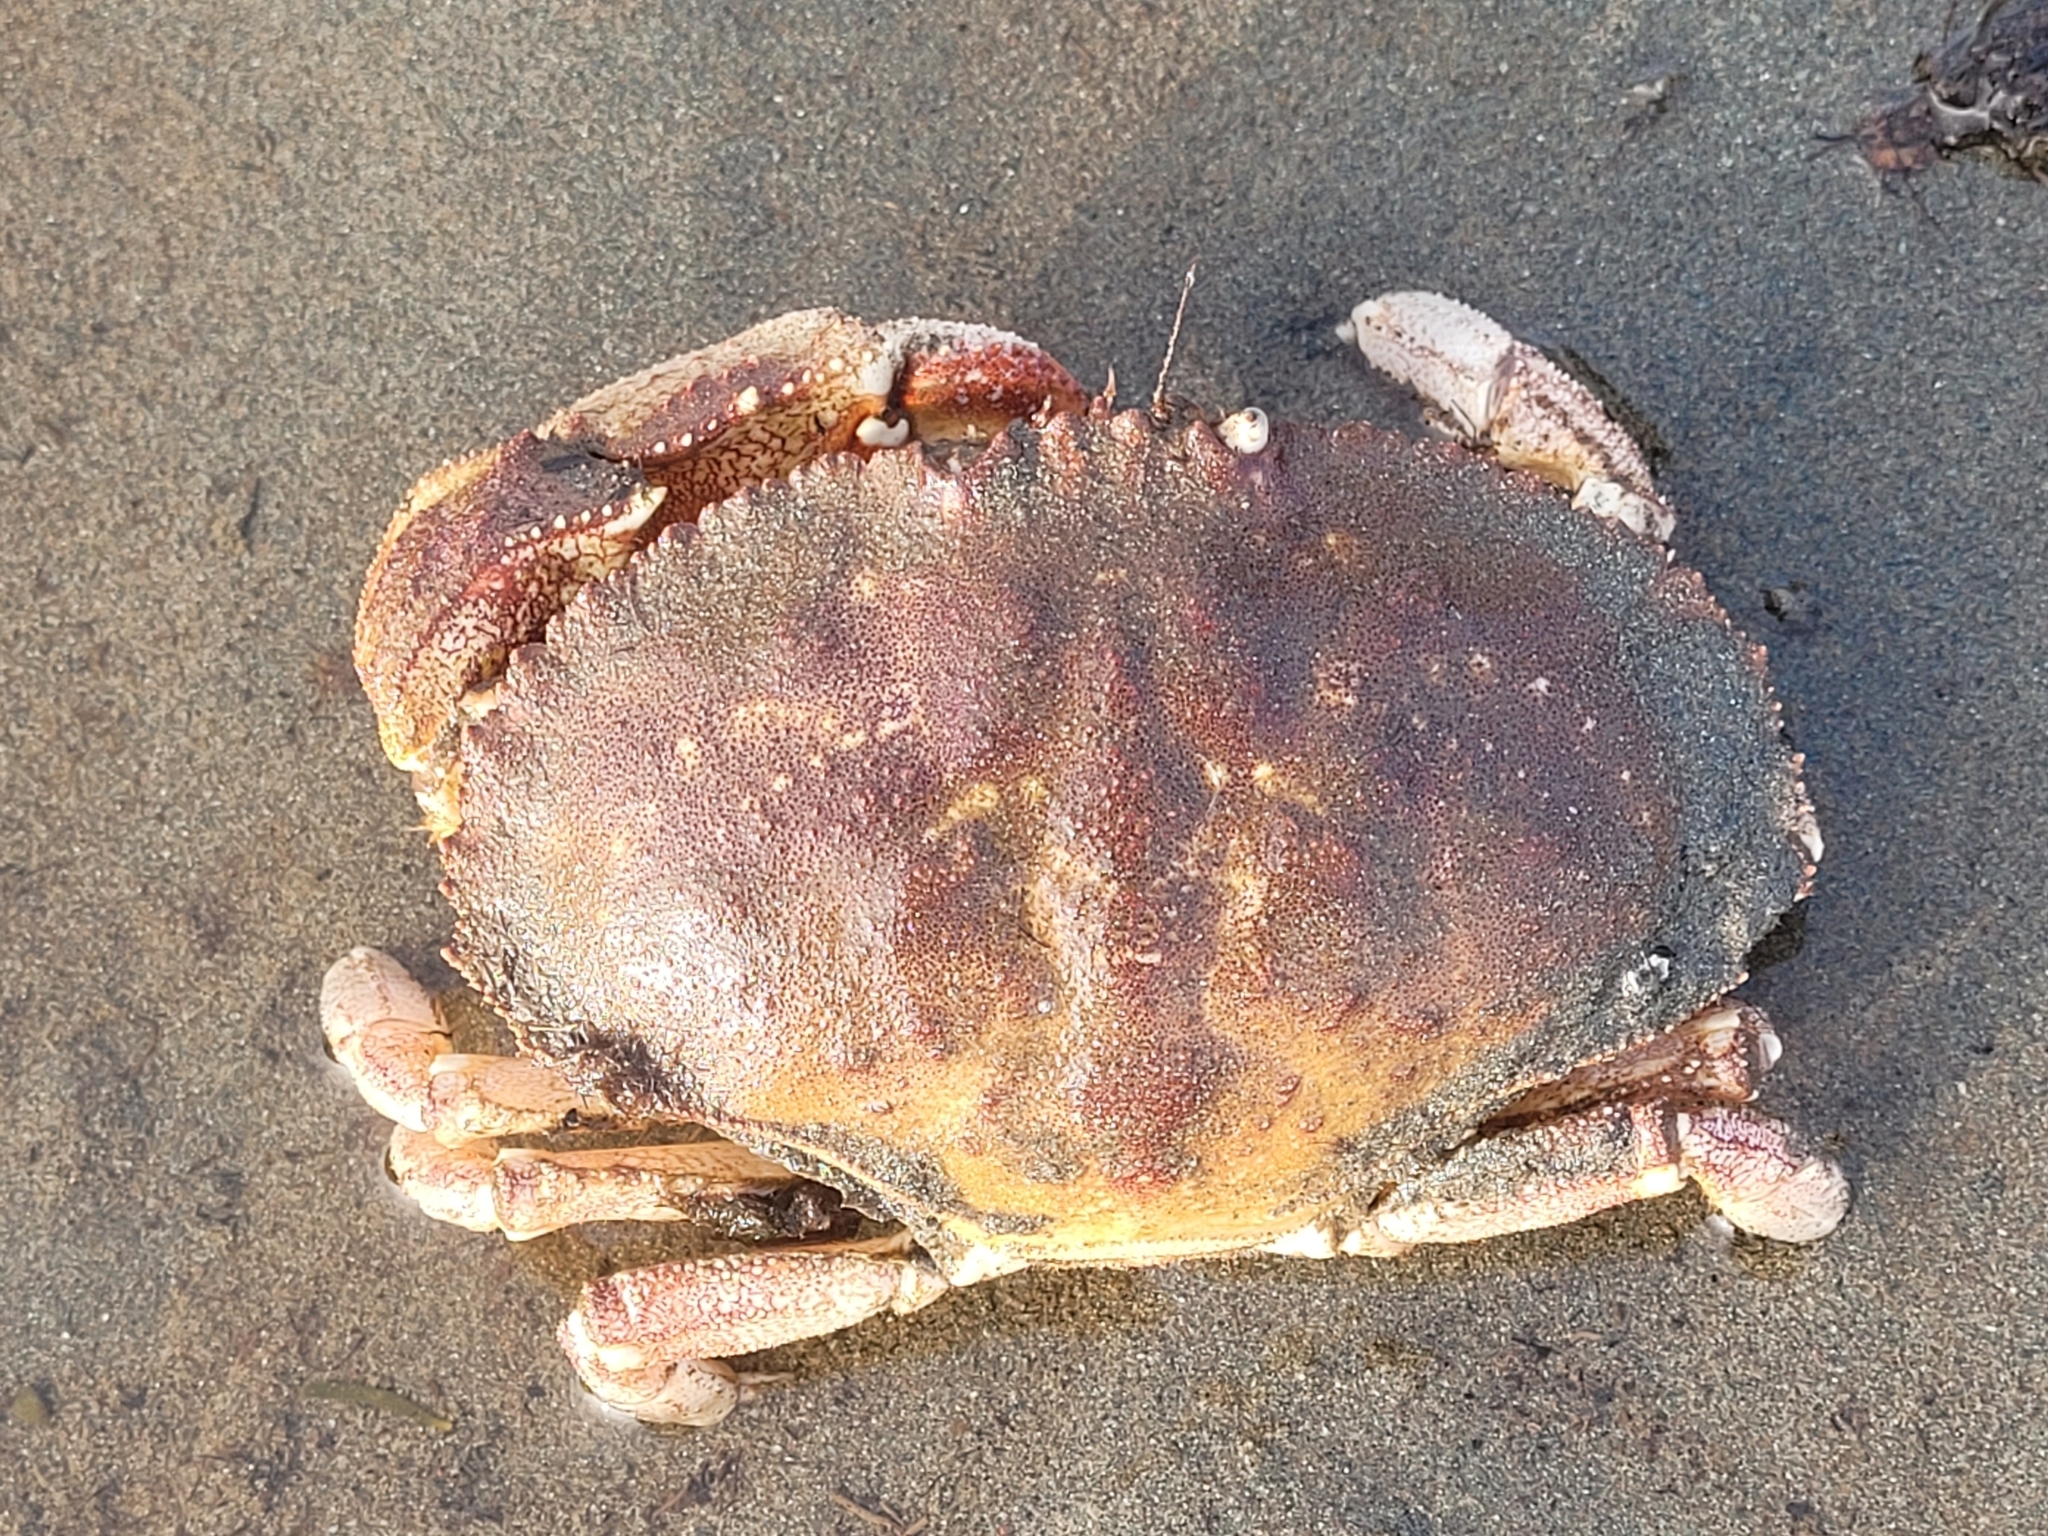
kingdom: Animalia
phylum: Arthropoda
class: Malacostraca
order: Decapoda
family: Cancridae
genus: Cancer
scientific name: Cancer borealis
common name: Jonah crab
